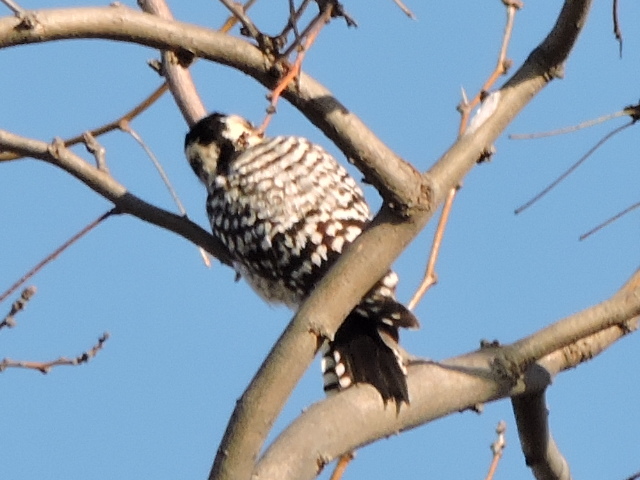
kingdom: Animalia
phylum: Chordata
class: Aves
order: Piciformes
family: Picidae
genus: Dryobates
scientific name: Dryobates scalaris
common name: Ladder-backed woodpecker
